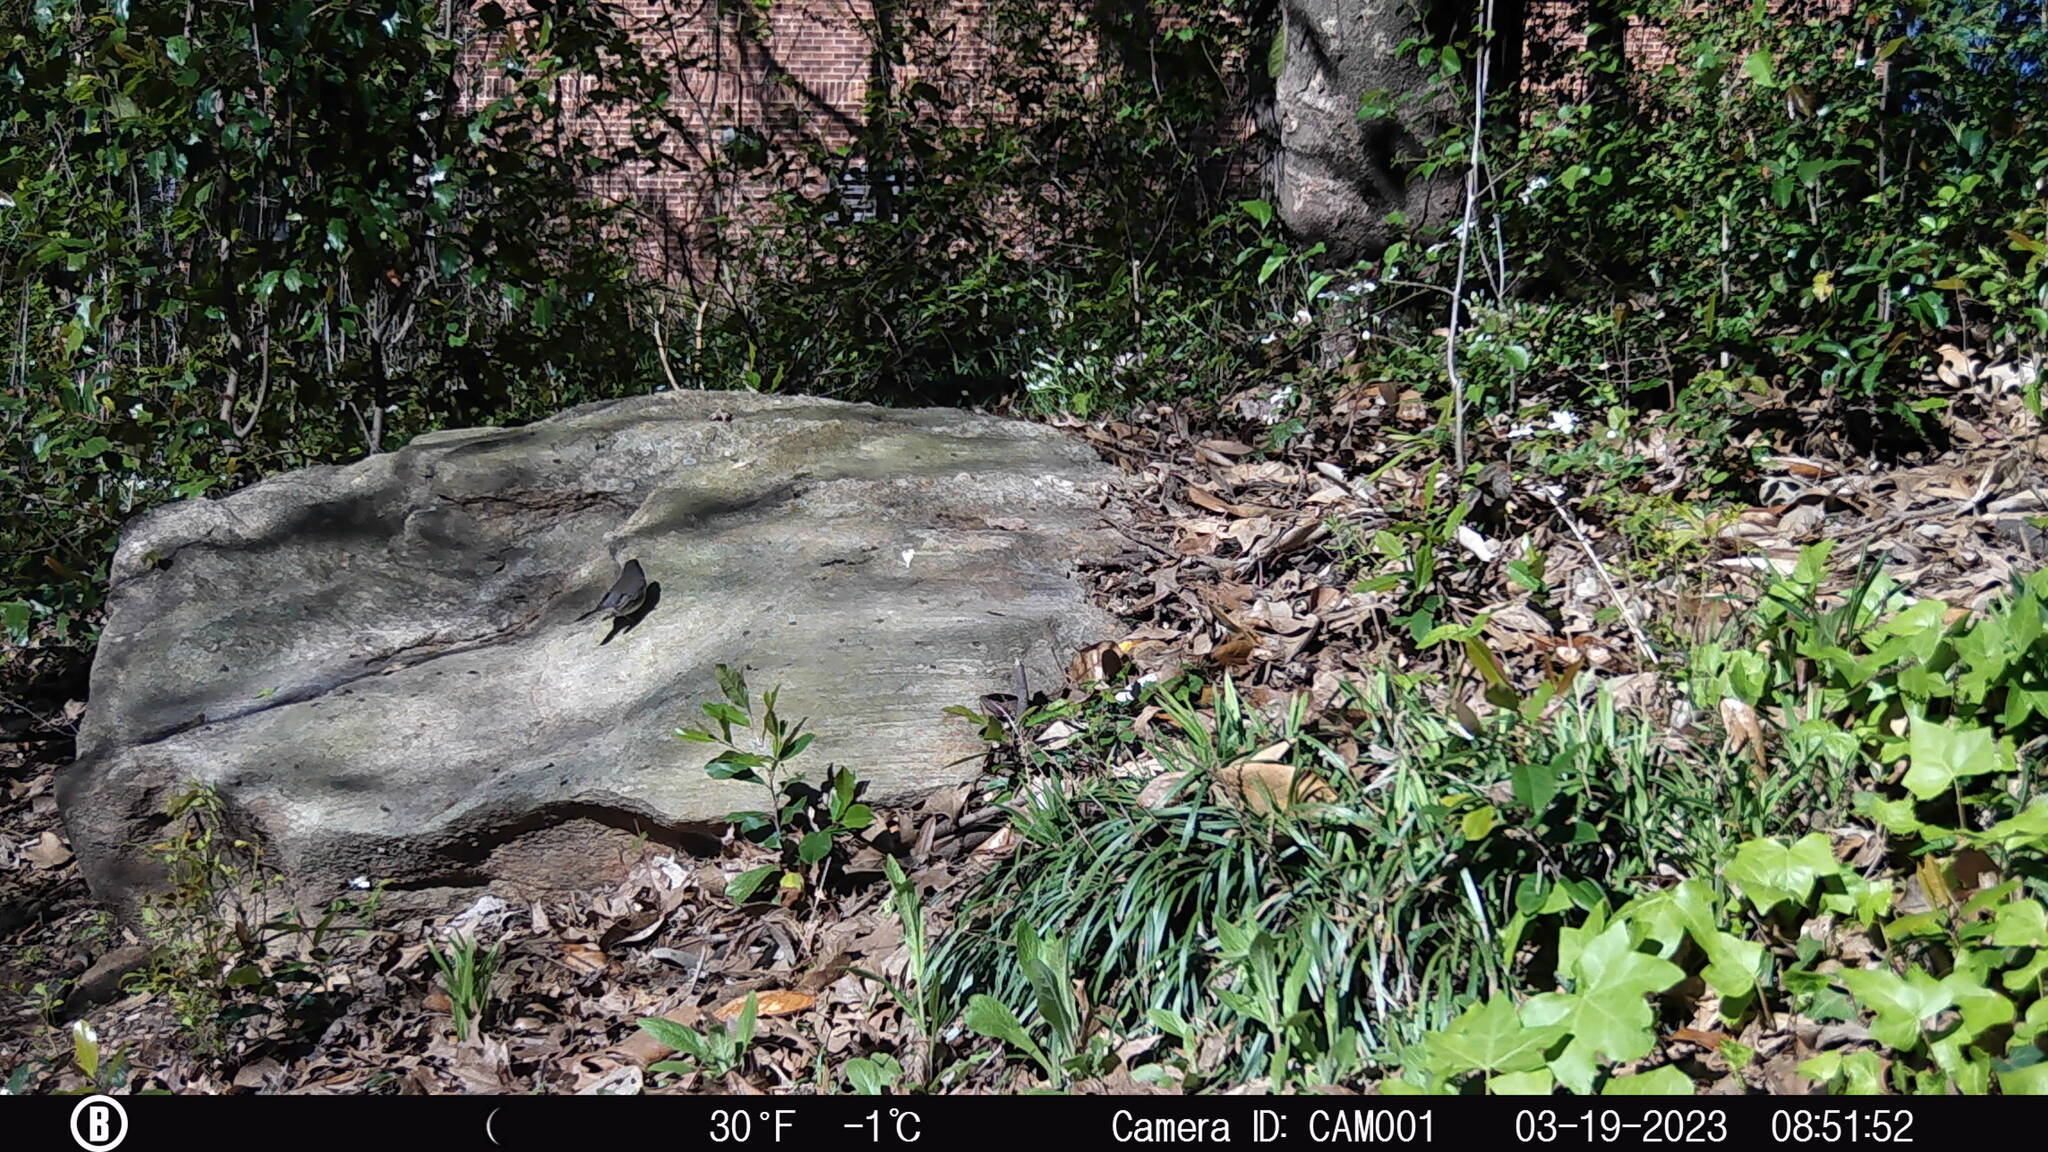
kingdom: Animalia
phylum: Chordata
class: Aves
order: Passeriformes
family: Passerellidae
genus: Junco
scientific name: Junco hyemalis
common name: Dark-eyed junco
